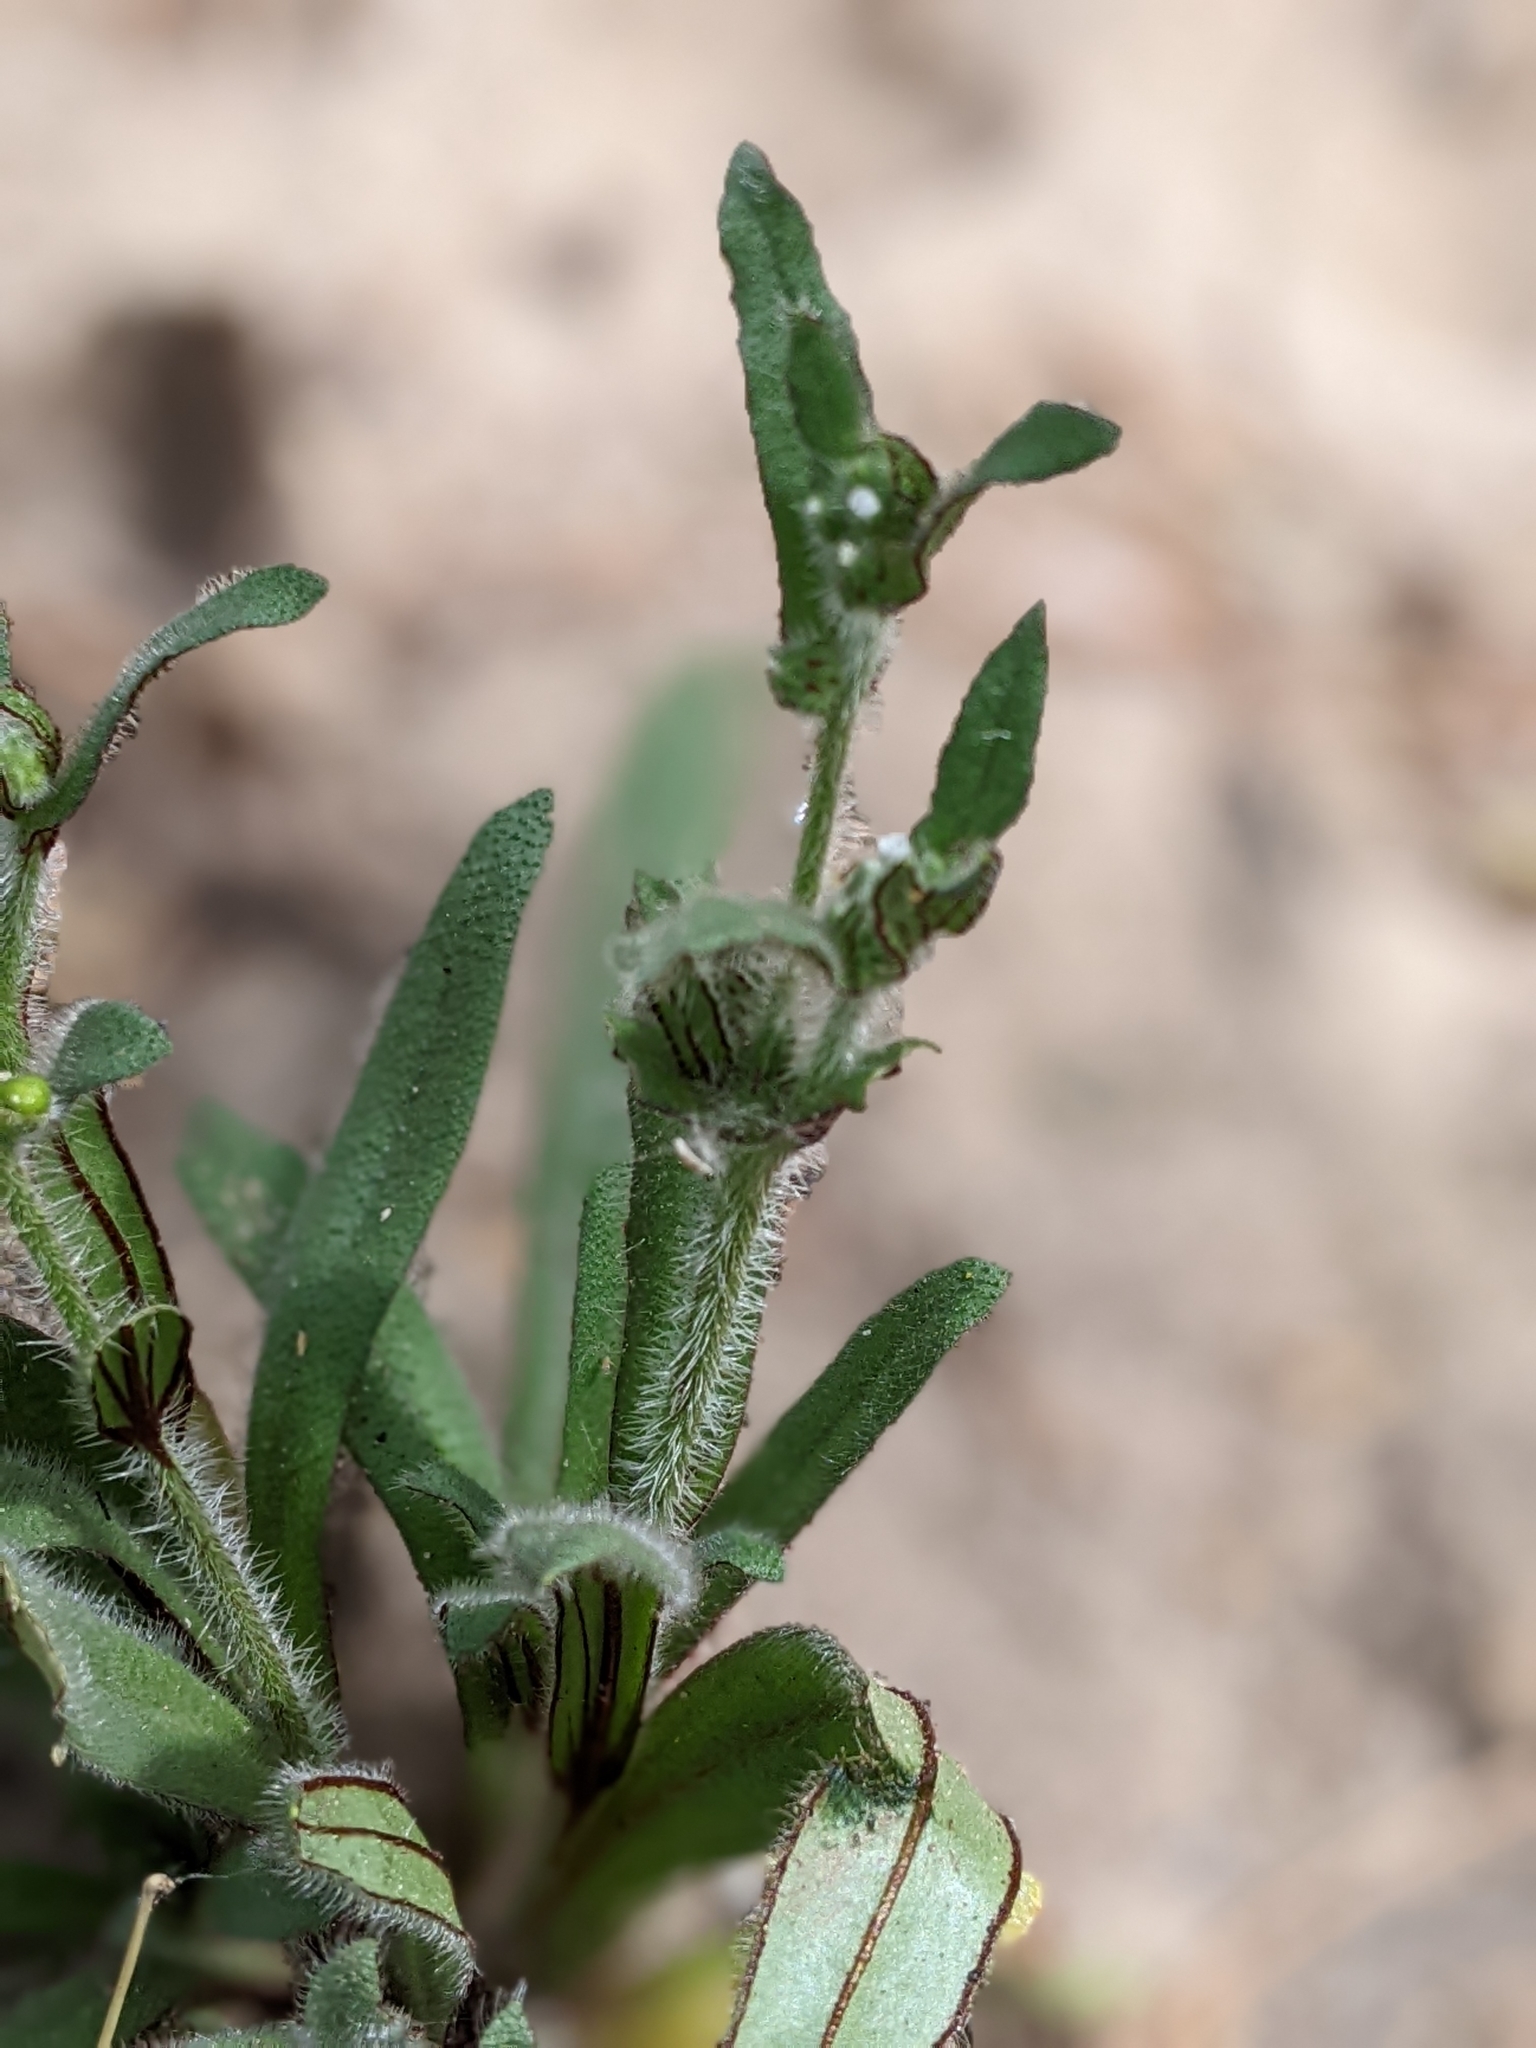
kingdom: Plantae
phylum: Tracheophyta
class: Magnoliopsida
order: Boraginales
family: Boraginaceae
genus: Plagiobothrys
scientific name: Plagiobothrys arizonicus
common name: Arizona popcorn-flower
